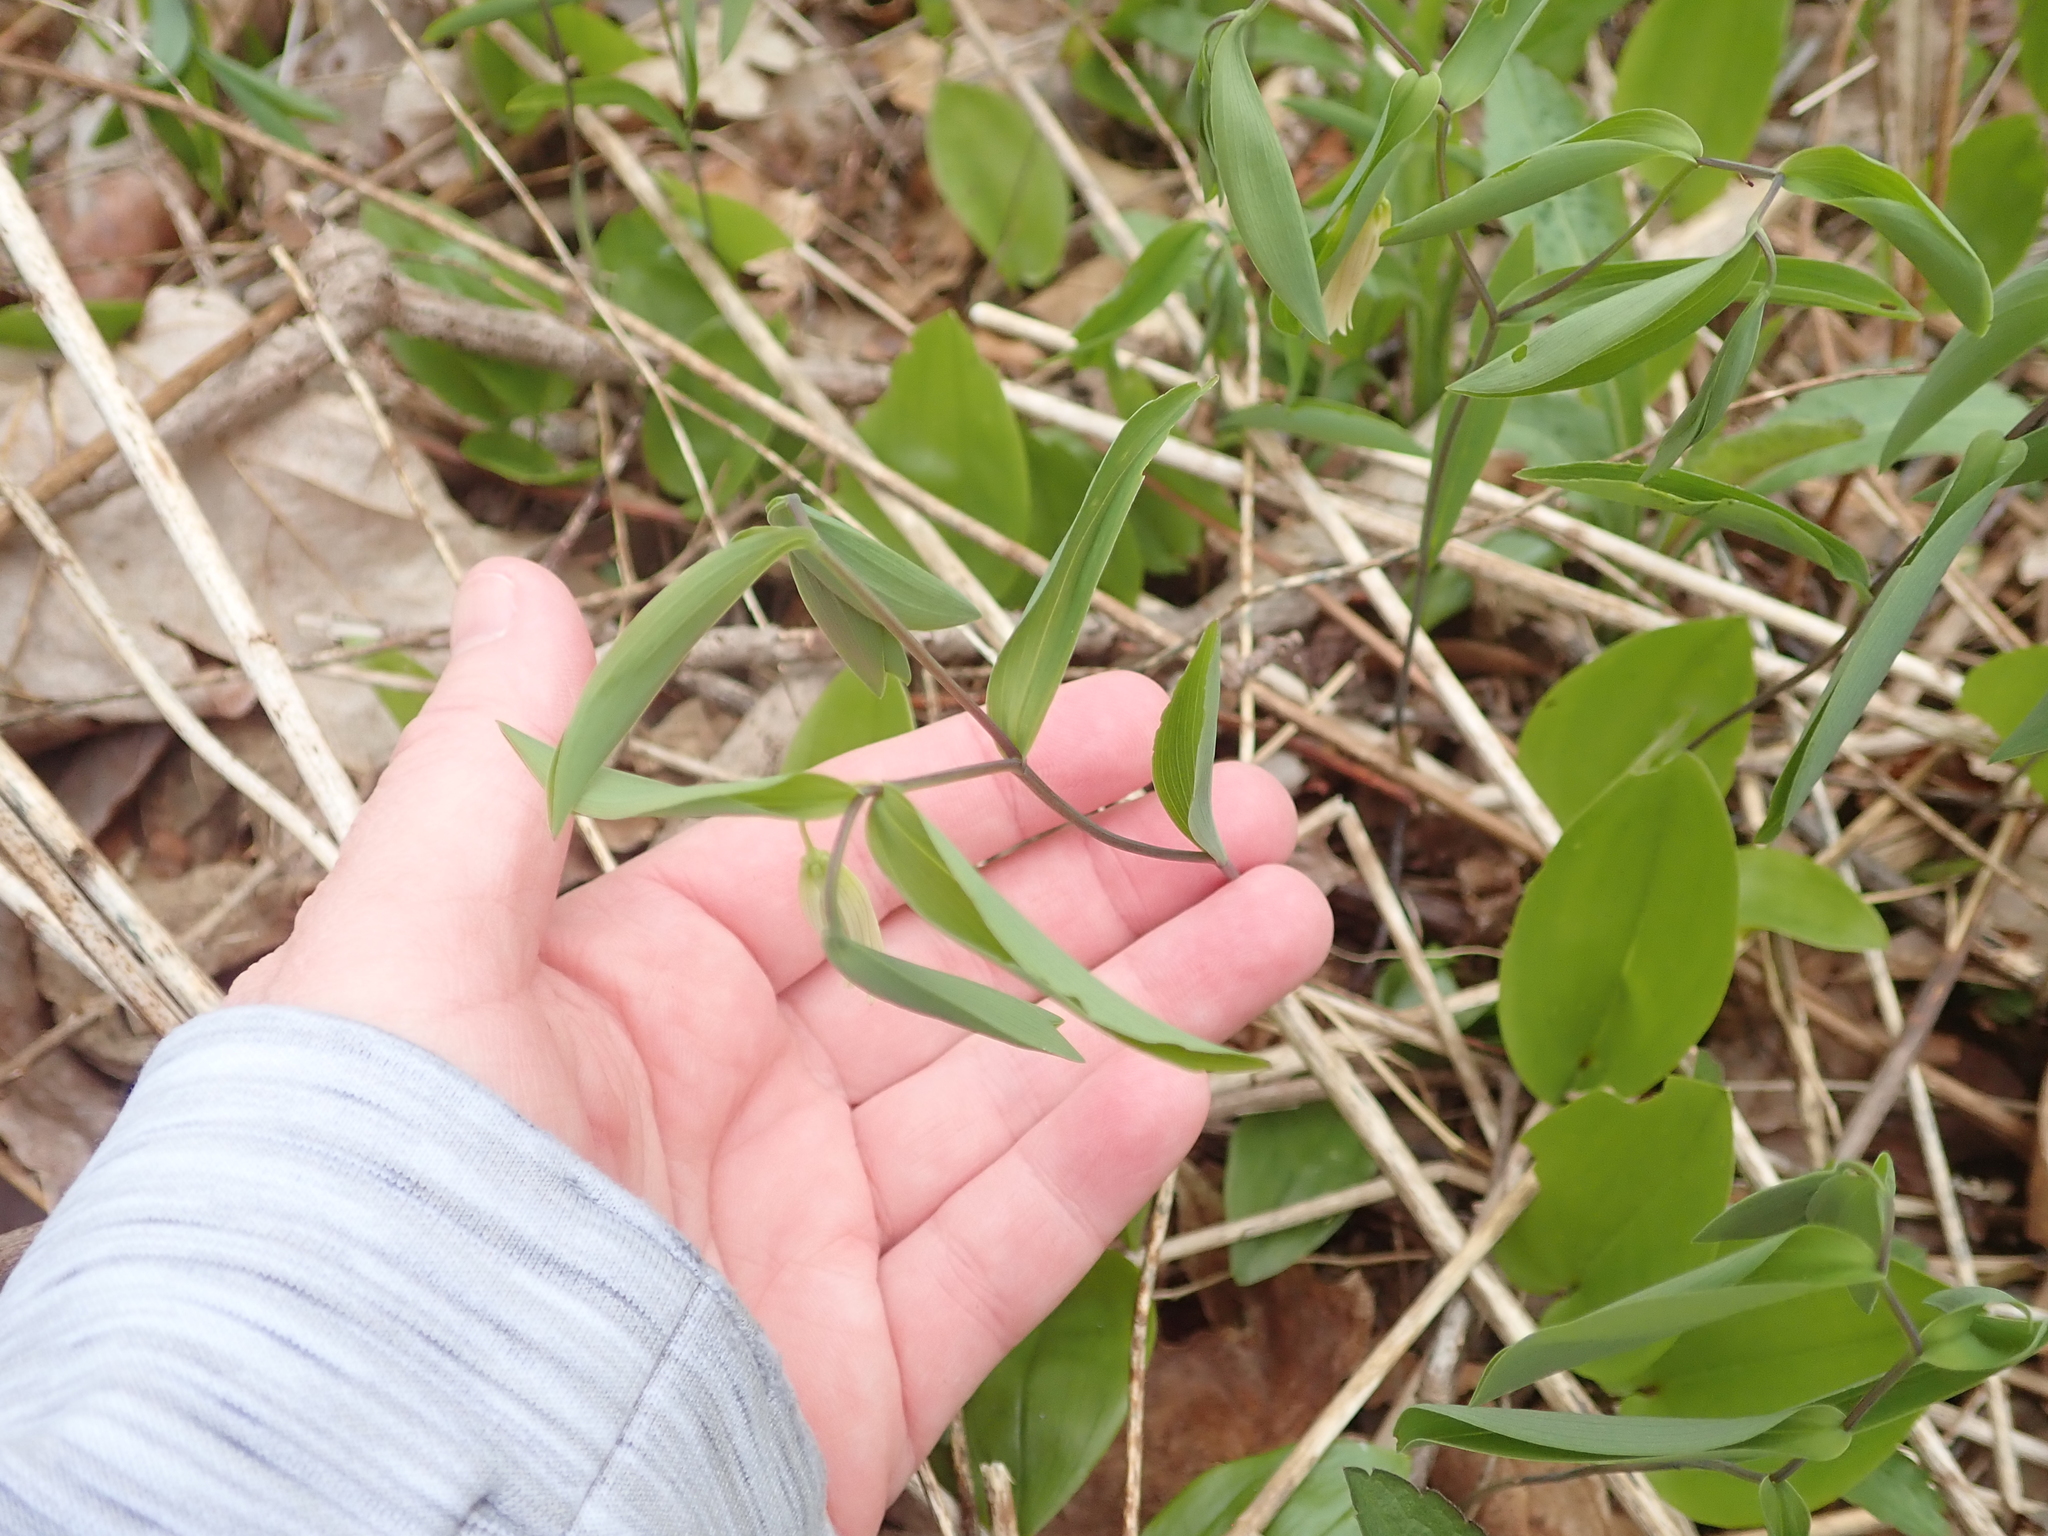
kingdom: Plantae
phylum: Tracheophyta
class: Liliopsida
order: Liliales
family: Colchicaceae
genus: Uvularia
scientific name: Uvularia sessilifolia
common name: Straw-lily
